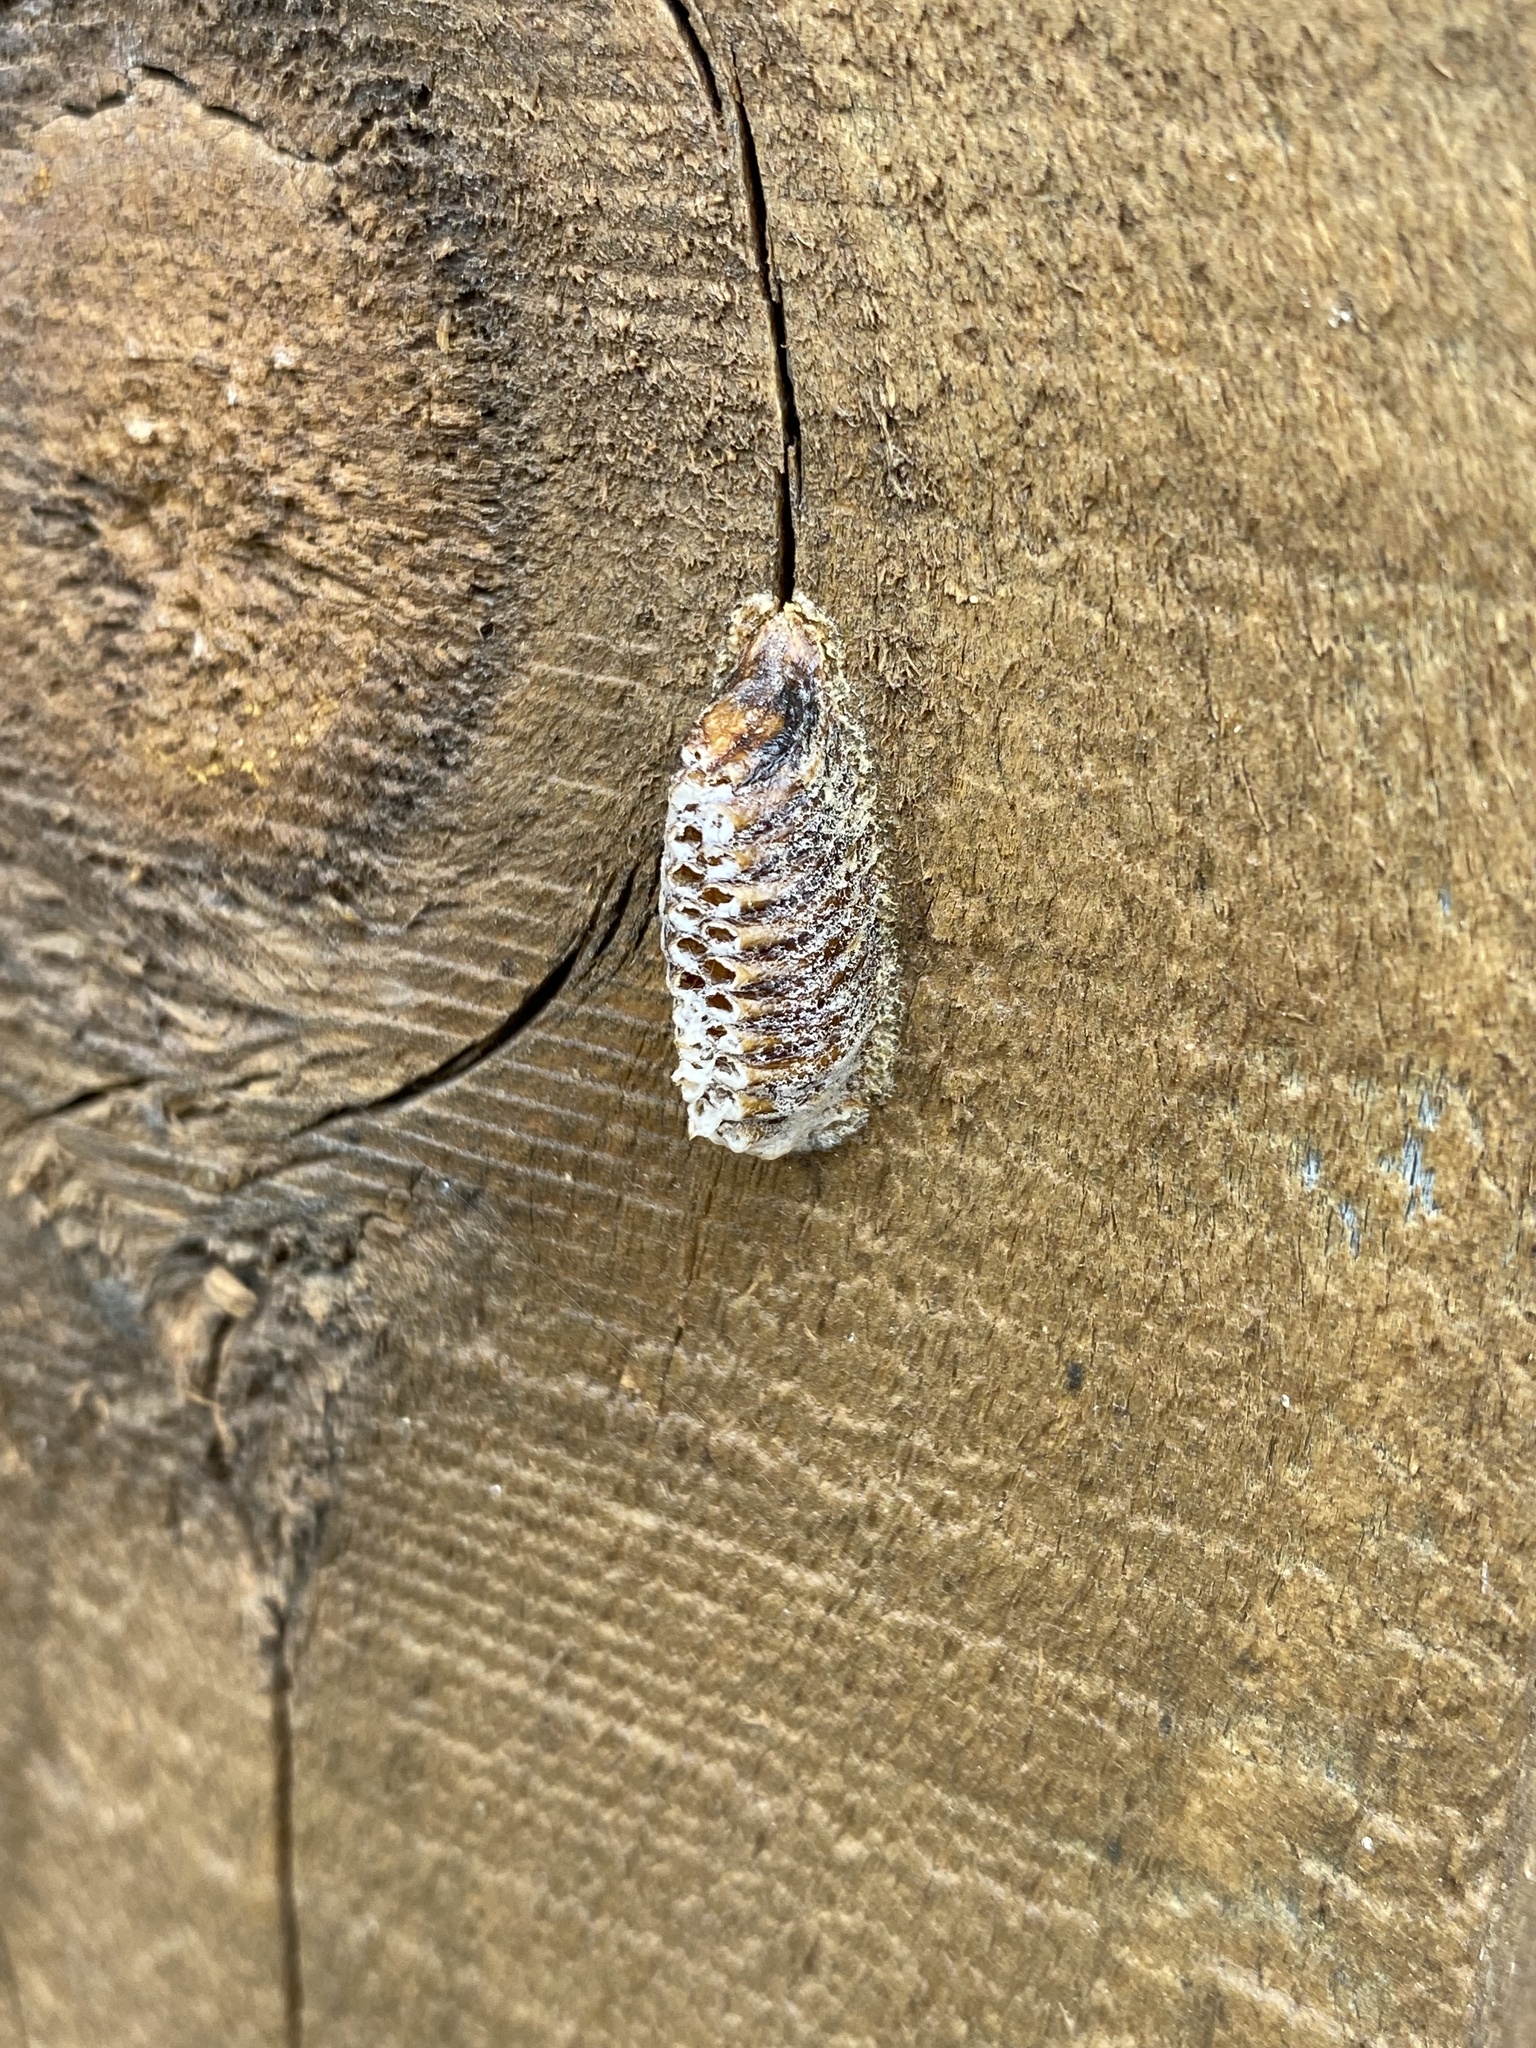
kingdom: Animalia
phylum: Arthropoda
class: Insecta
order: Mantodea
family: Mantidae
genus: Orthodera
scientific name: Orthodera novaezealandiae
